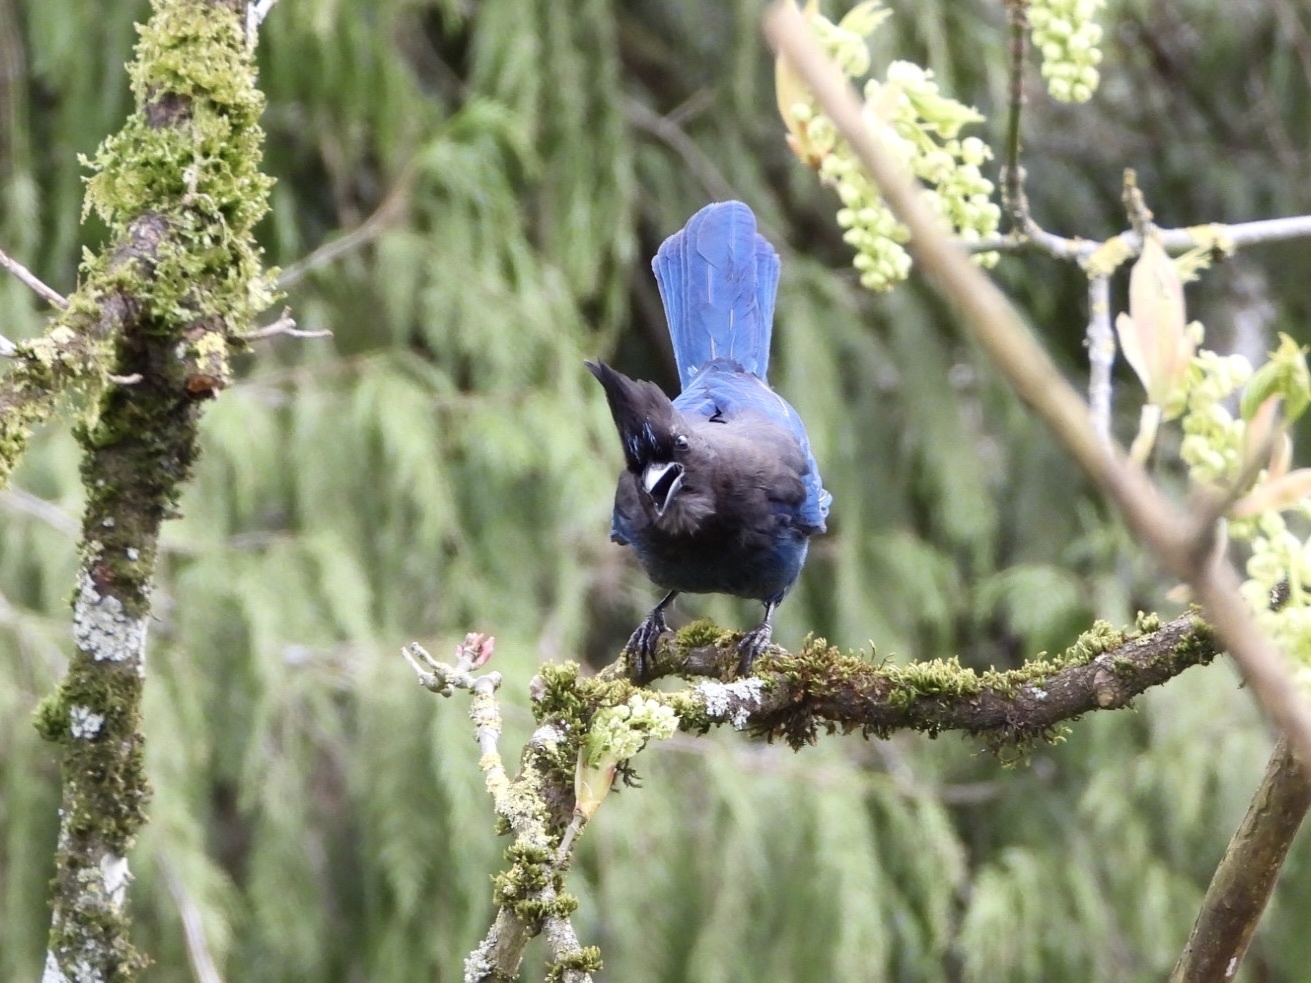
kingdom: Animalia
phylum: Chordata
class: Aves
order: Passeriformes
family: Corvidae
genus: Cyanocitta
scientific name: Cyanocitta stelleri
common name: Steller's jay
